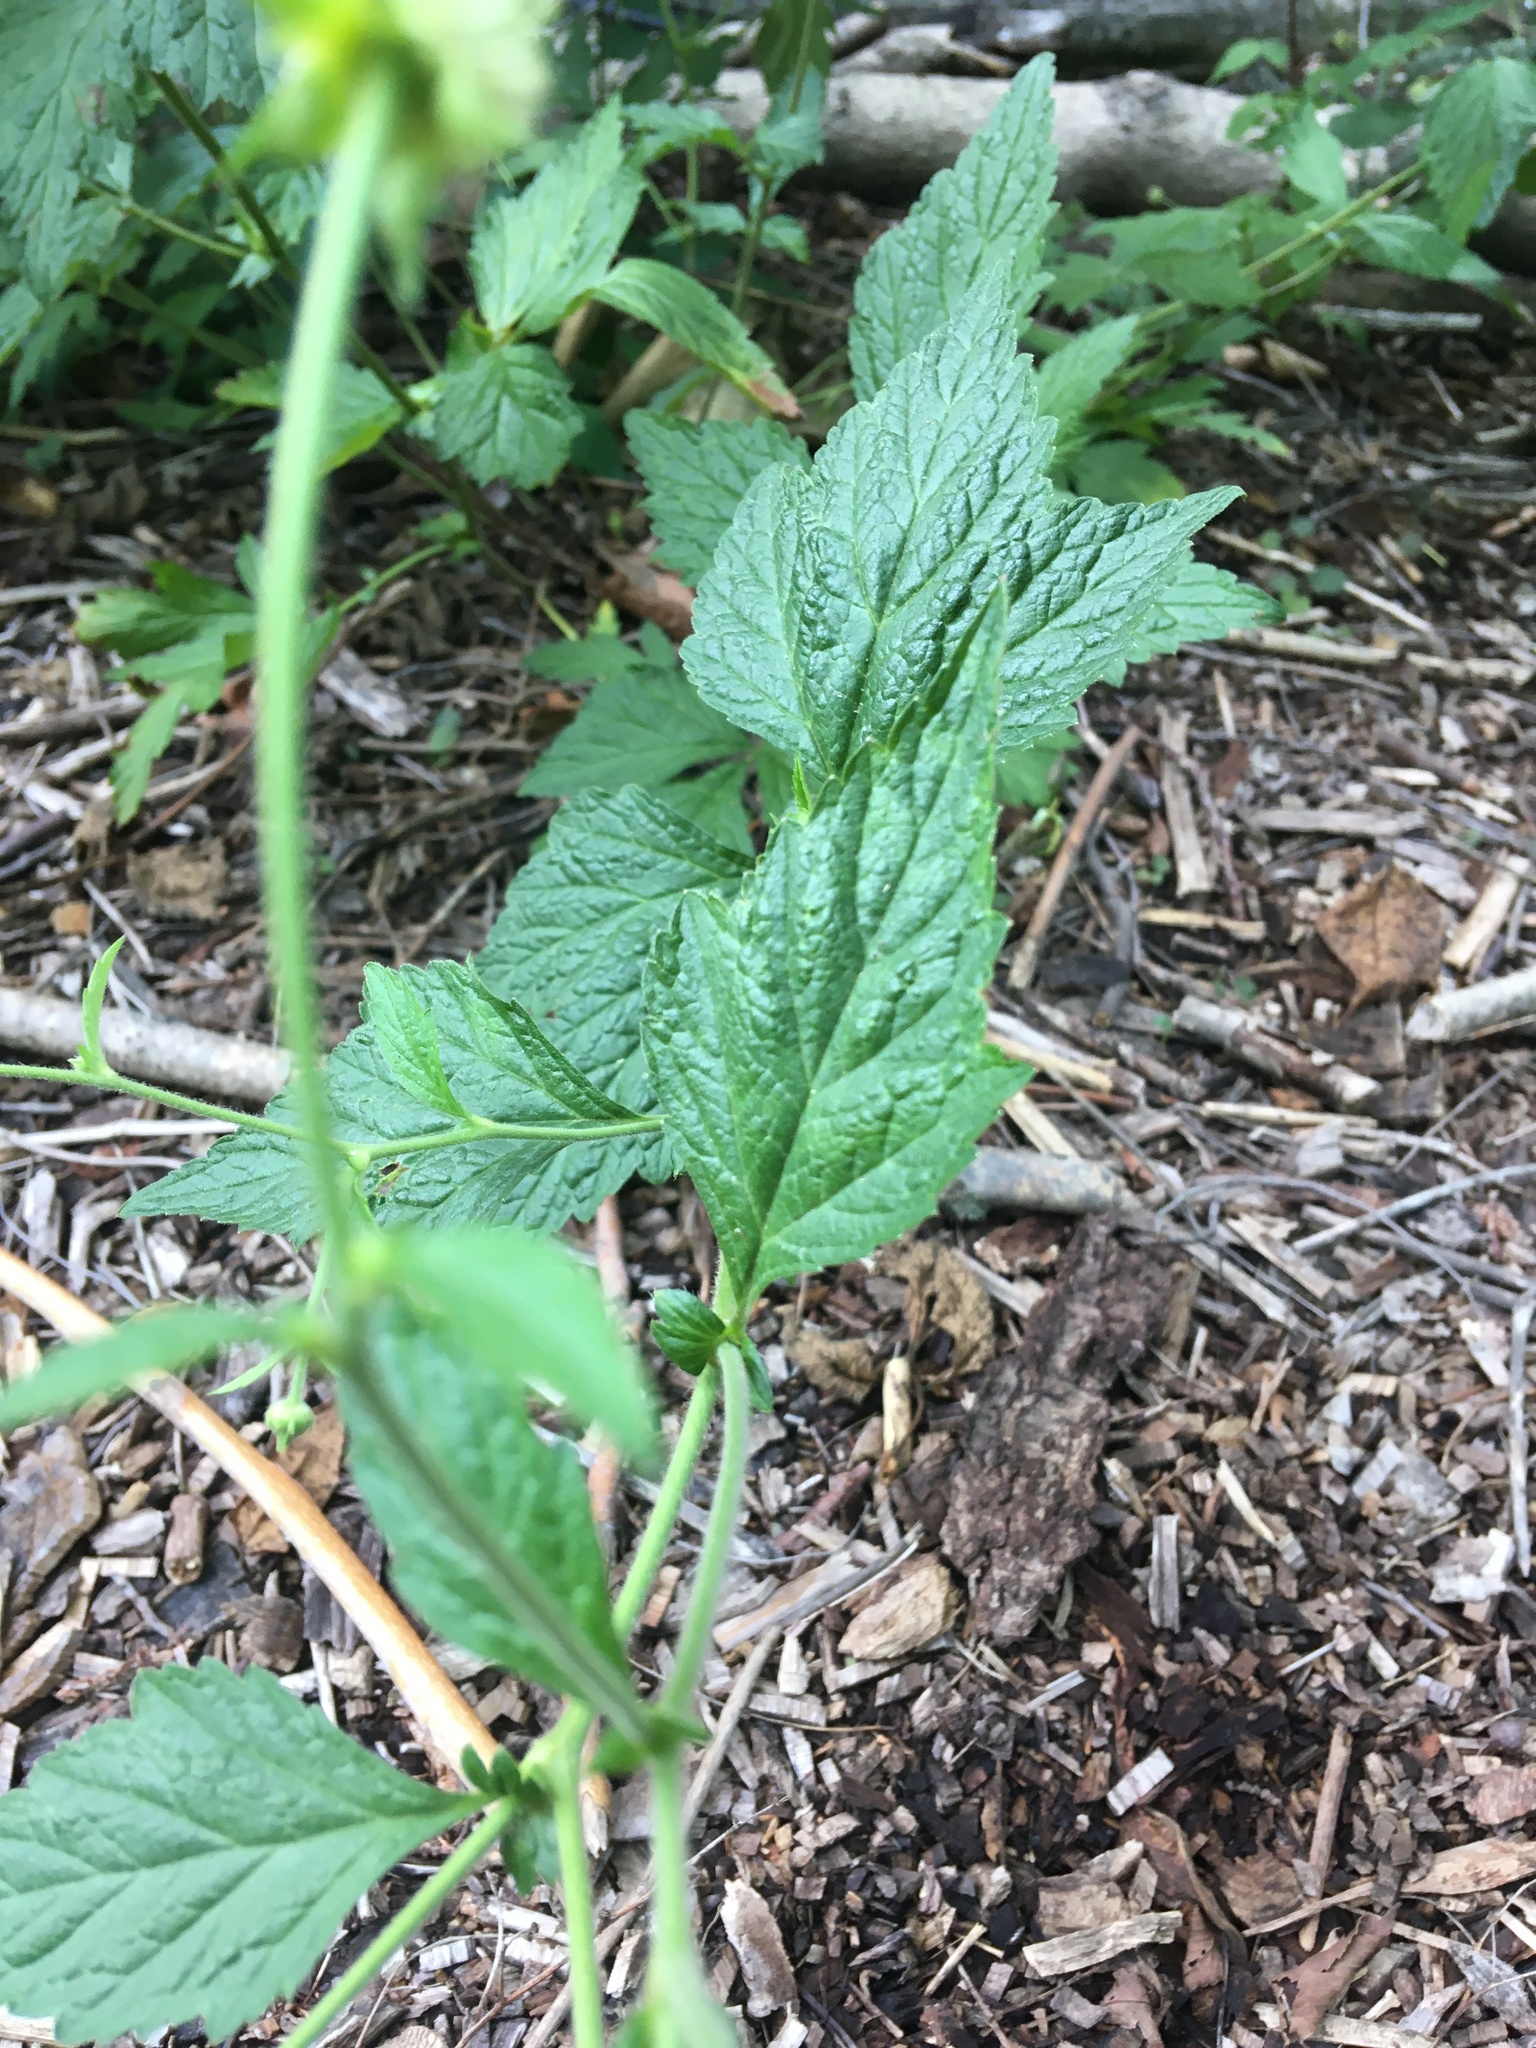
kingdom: Plantae
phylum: Tracheophyta
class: Magnoliopsida
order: Rosales
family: Rosaceae
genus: Geum
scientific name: Geum canadense
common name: White avens
